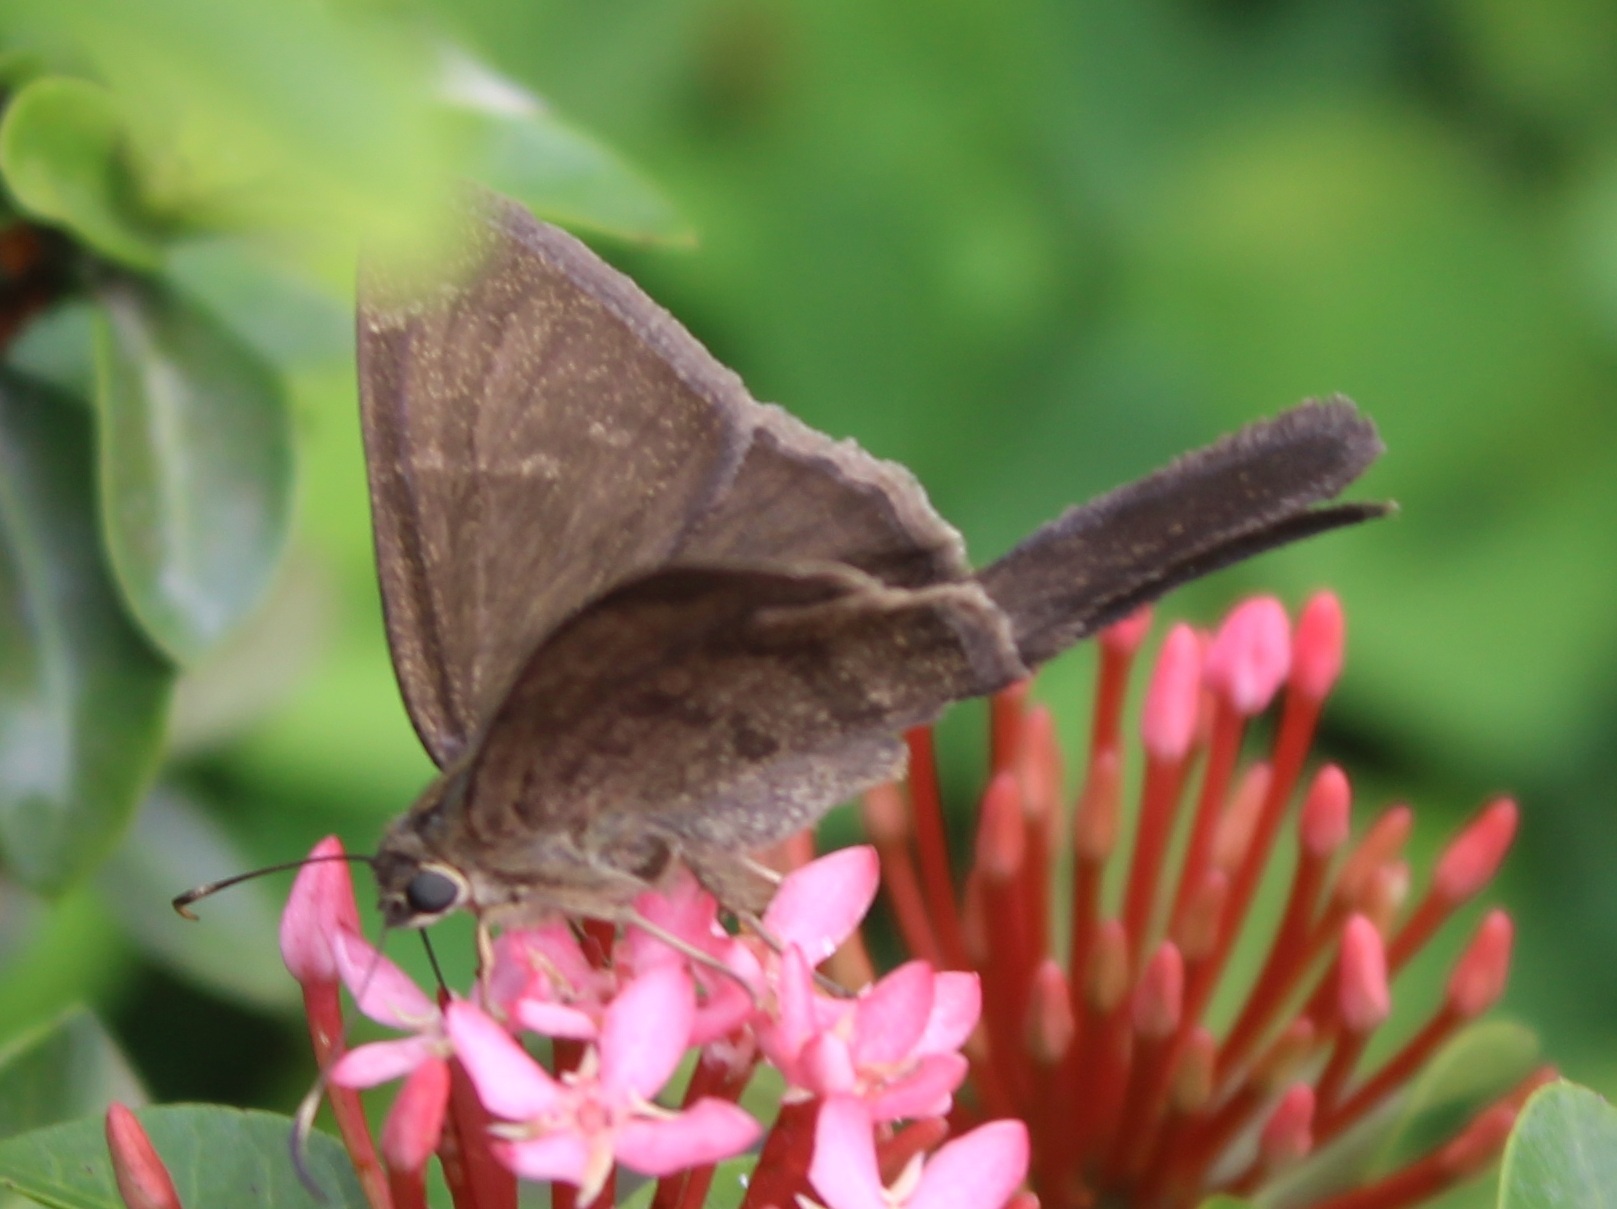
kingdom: Animalia
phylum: Arthropoda
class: Insecta
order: Lepidoptera
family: Hesperiidae
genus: Urbanus
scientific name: Urbanus procne
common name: Brown longtail
